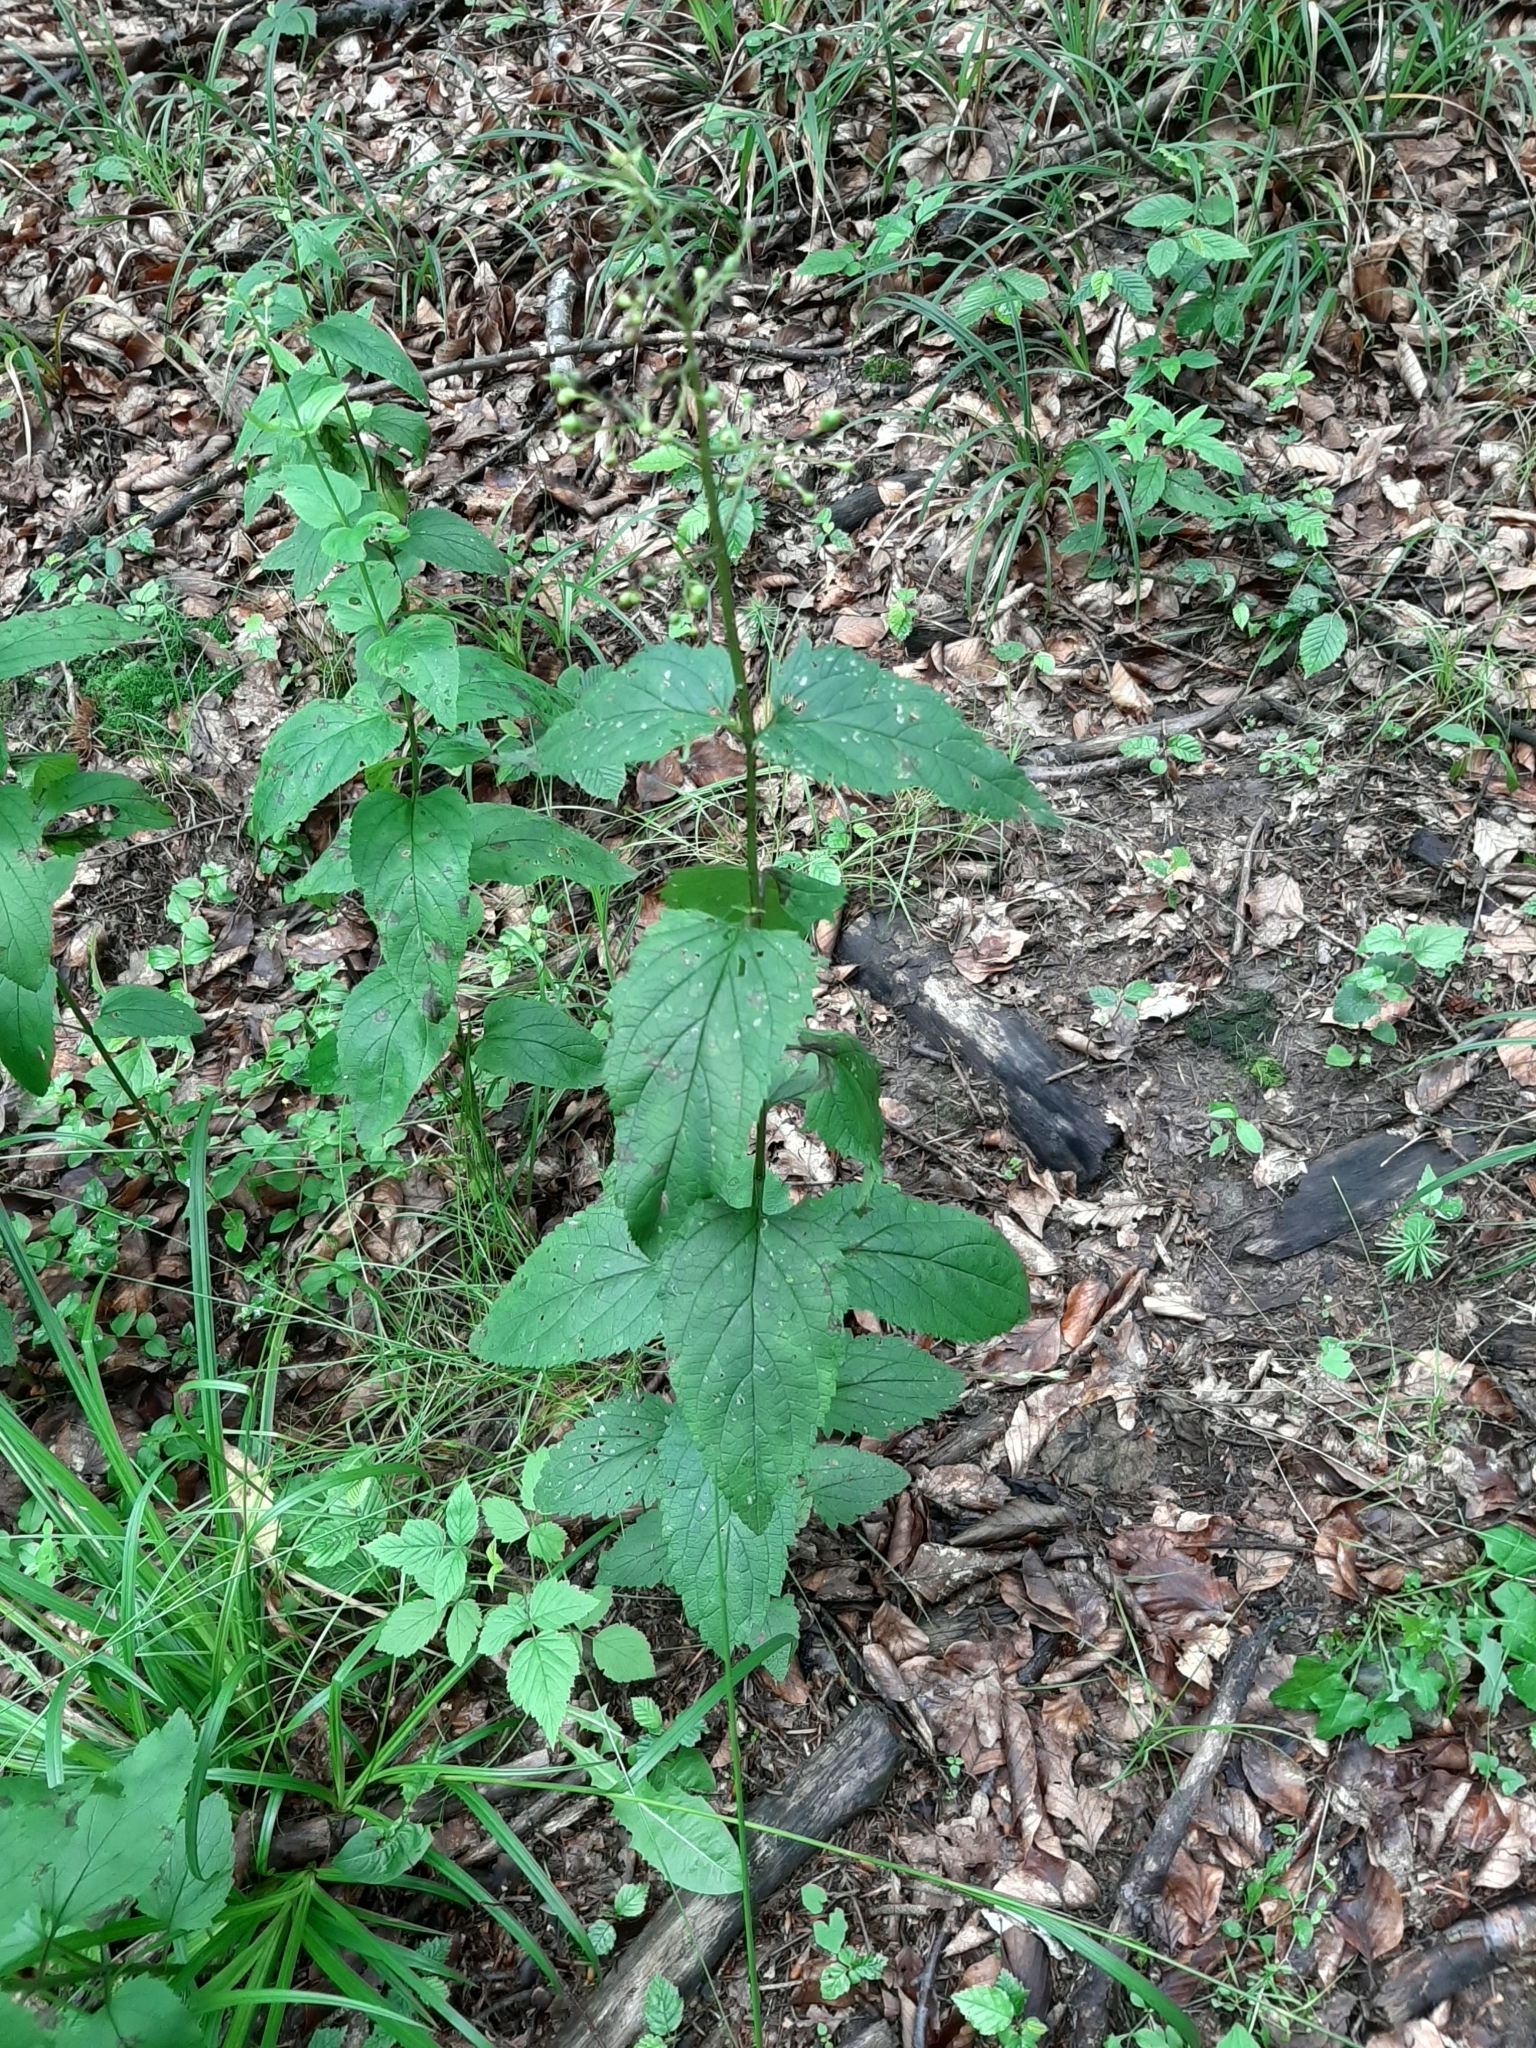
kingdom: Plantae
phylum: Tracheophyta
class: Magnoliopsida
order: Lamiales
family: Scrophulariaceae
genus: Scrophularia
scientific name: Scrophularia nodosa
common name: Common figwort
